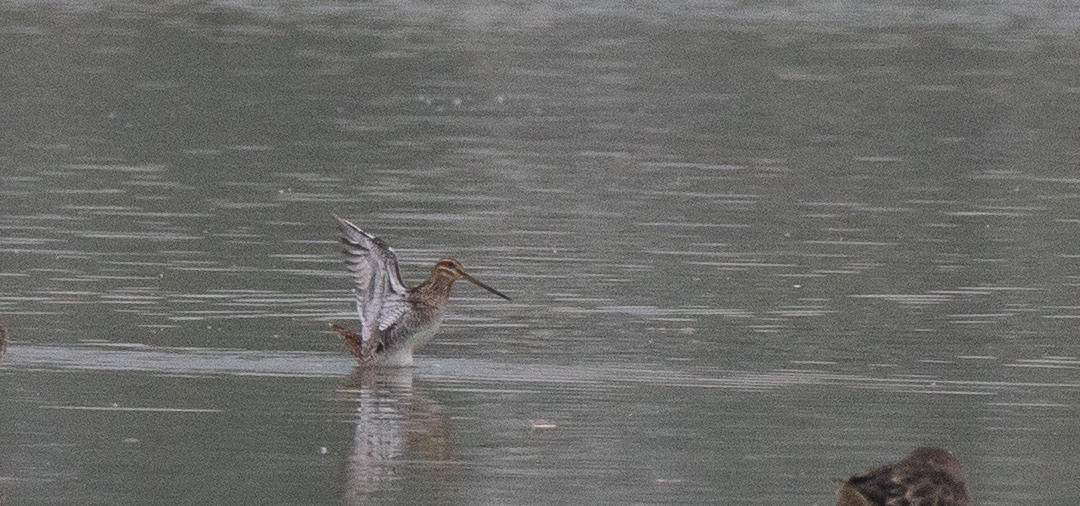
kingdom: Animalia
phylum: Chordata
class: Aves
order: Charadriiformes
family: Scolopacidae
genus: Gallinago
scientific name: Gallinago gallinago
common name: Common snipe
